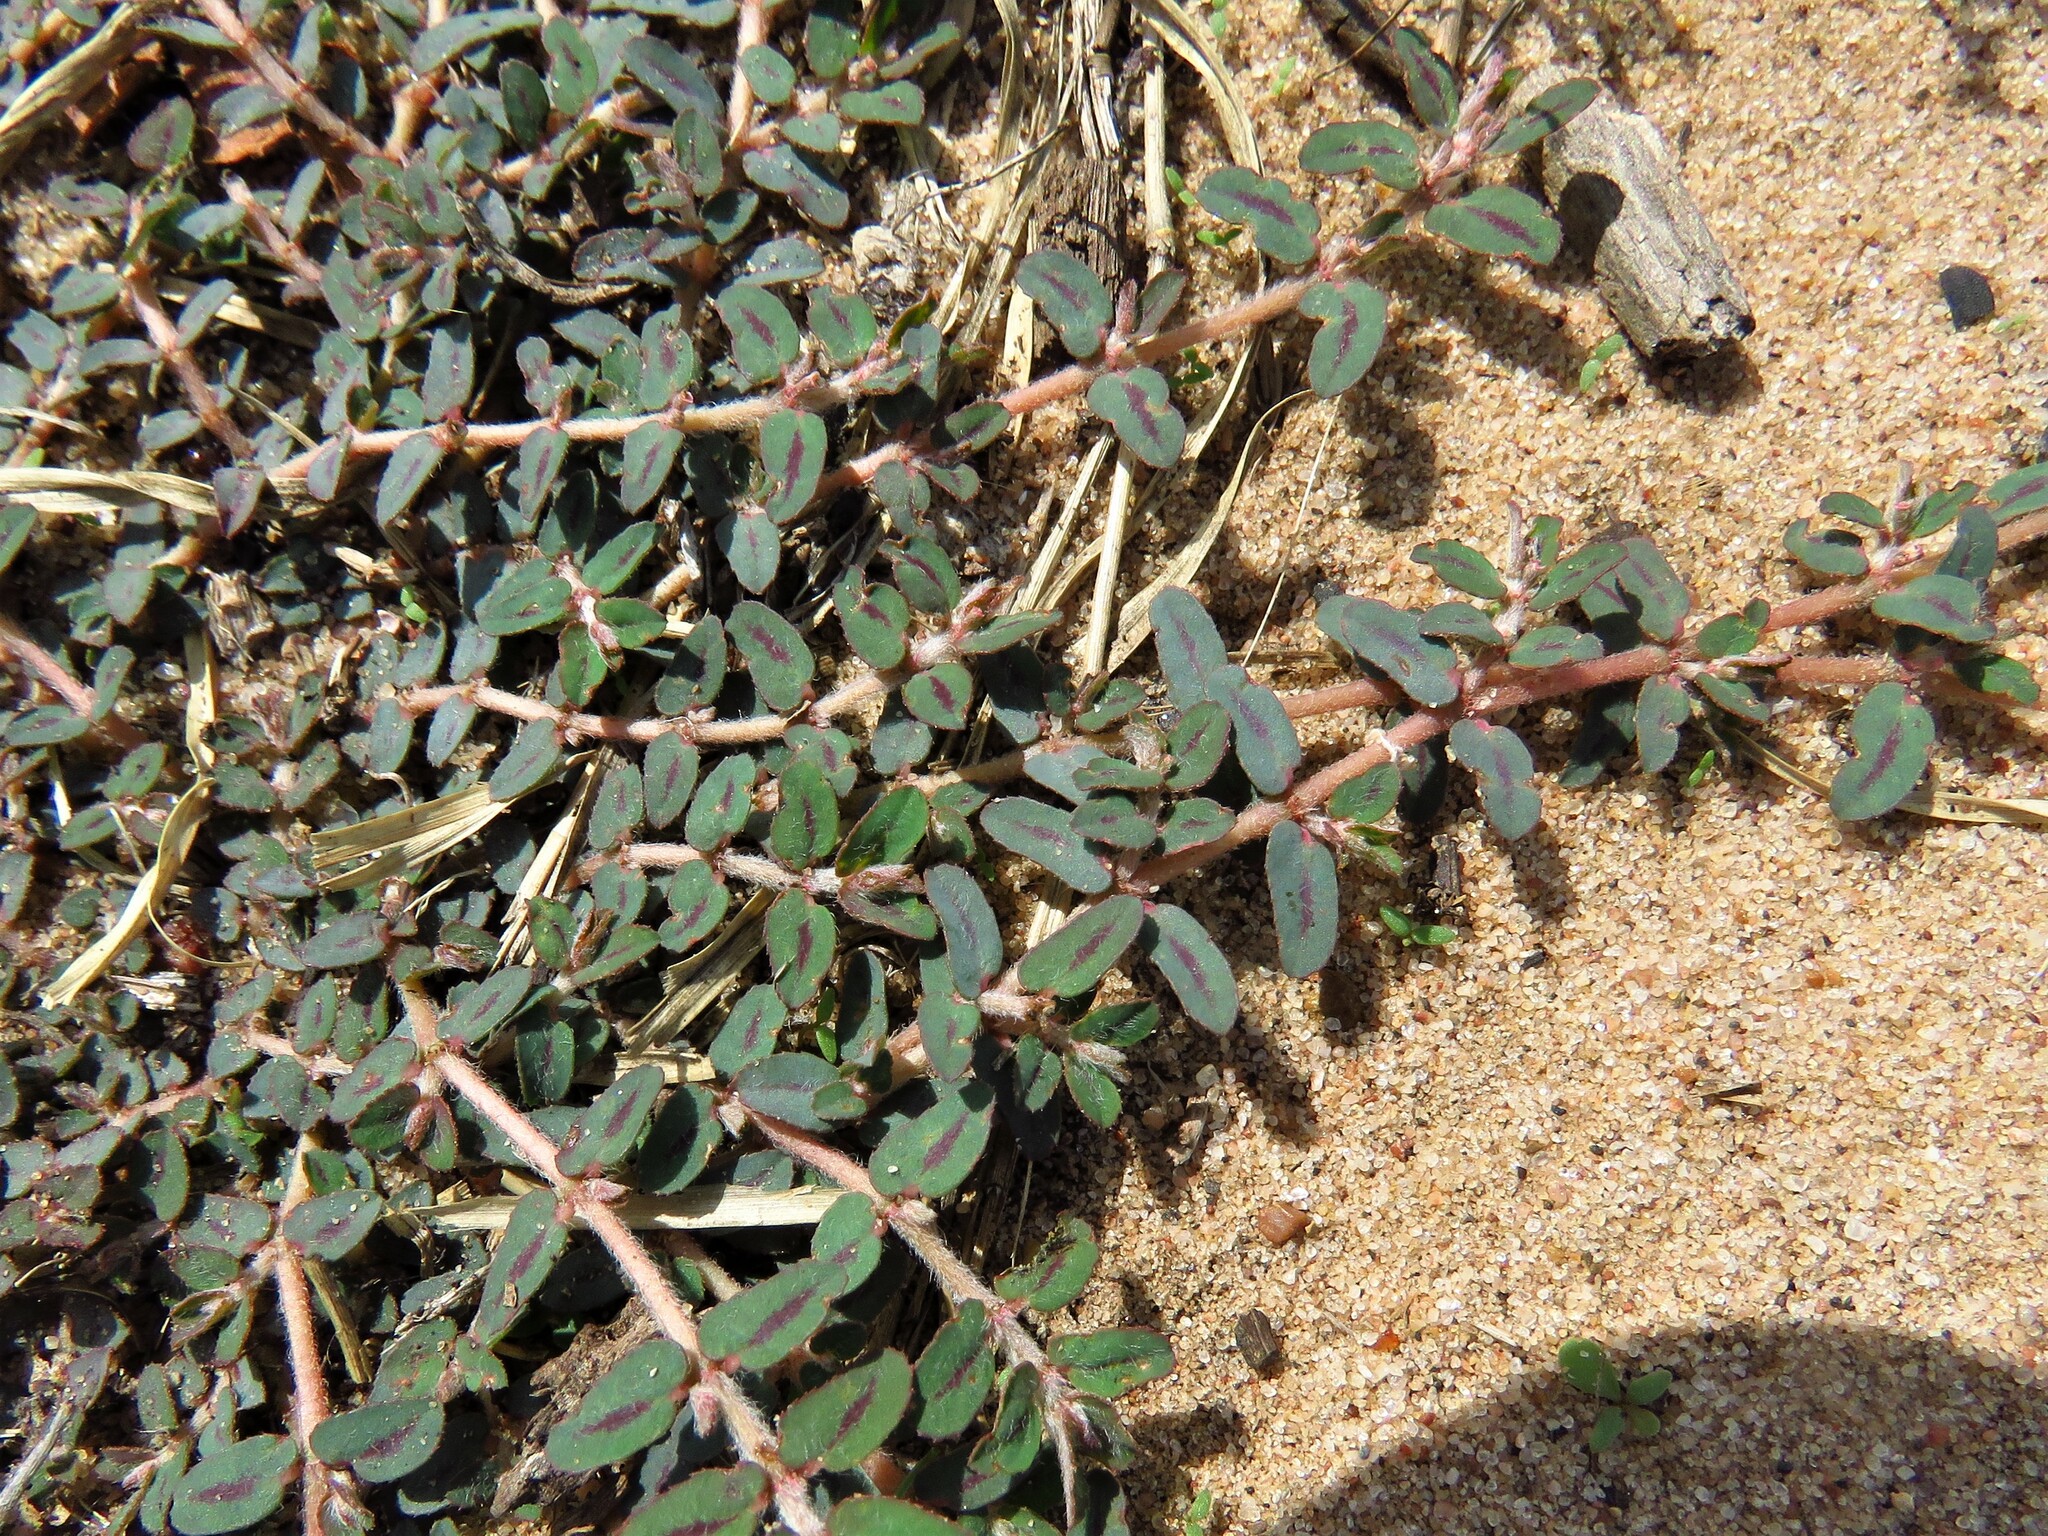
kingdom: Plantae
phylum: Tracheophyta
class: Magnoliopsida
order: Malpighiales
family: Euphorbiaceae
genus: Euphorbia
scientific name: Euphorbia maculata
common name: Spotted spurge
